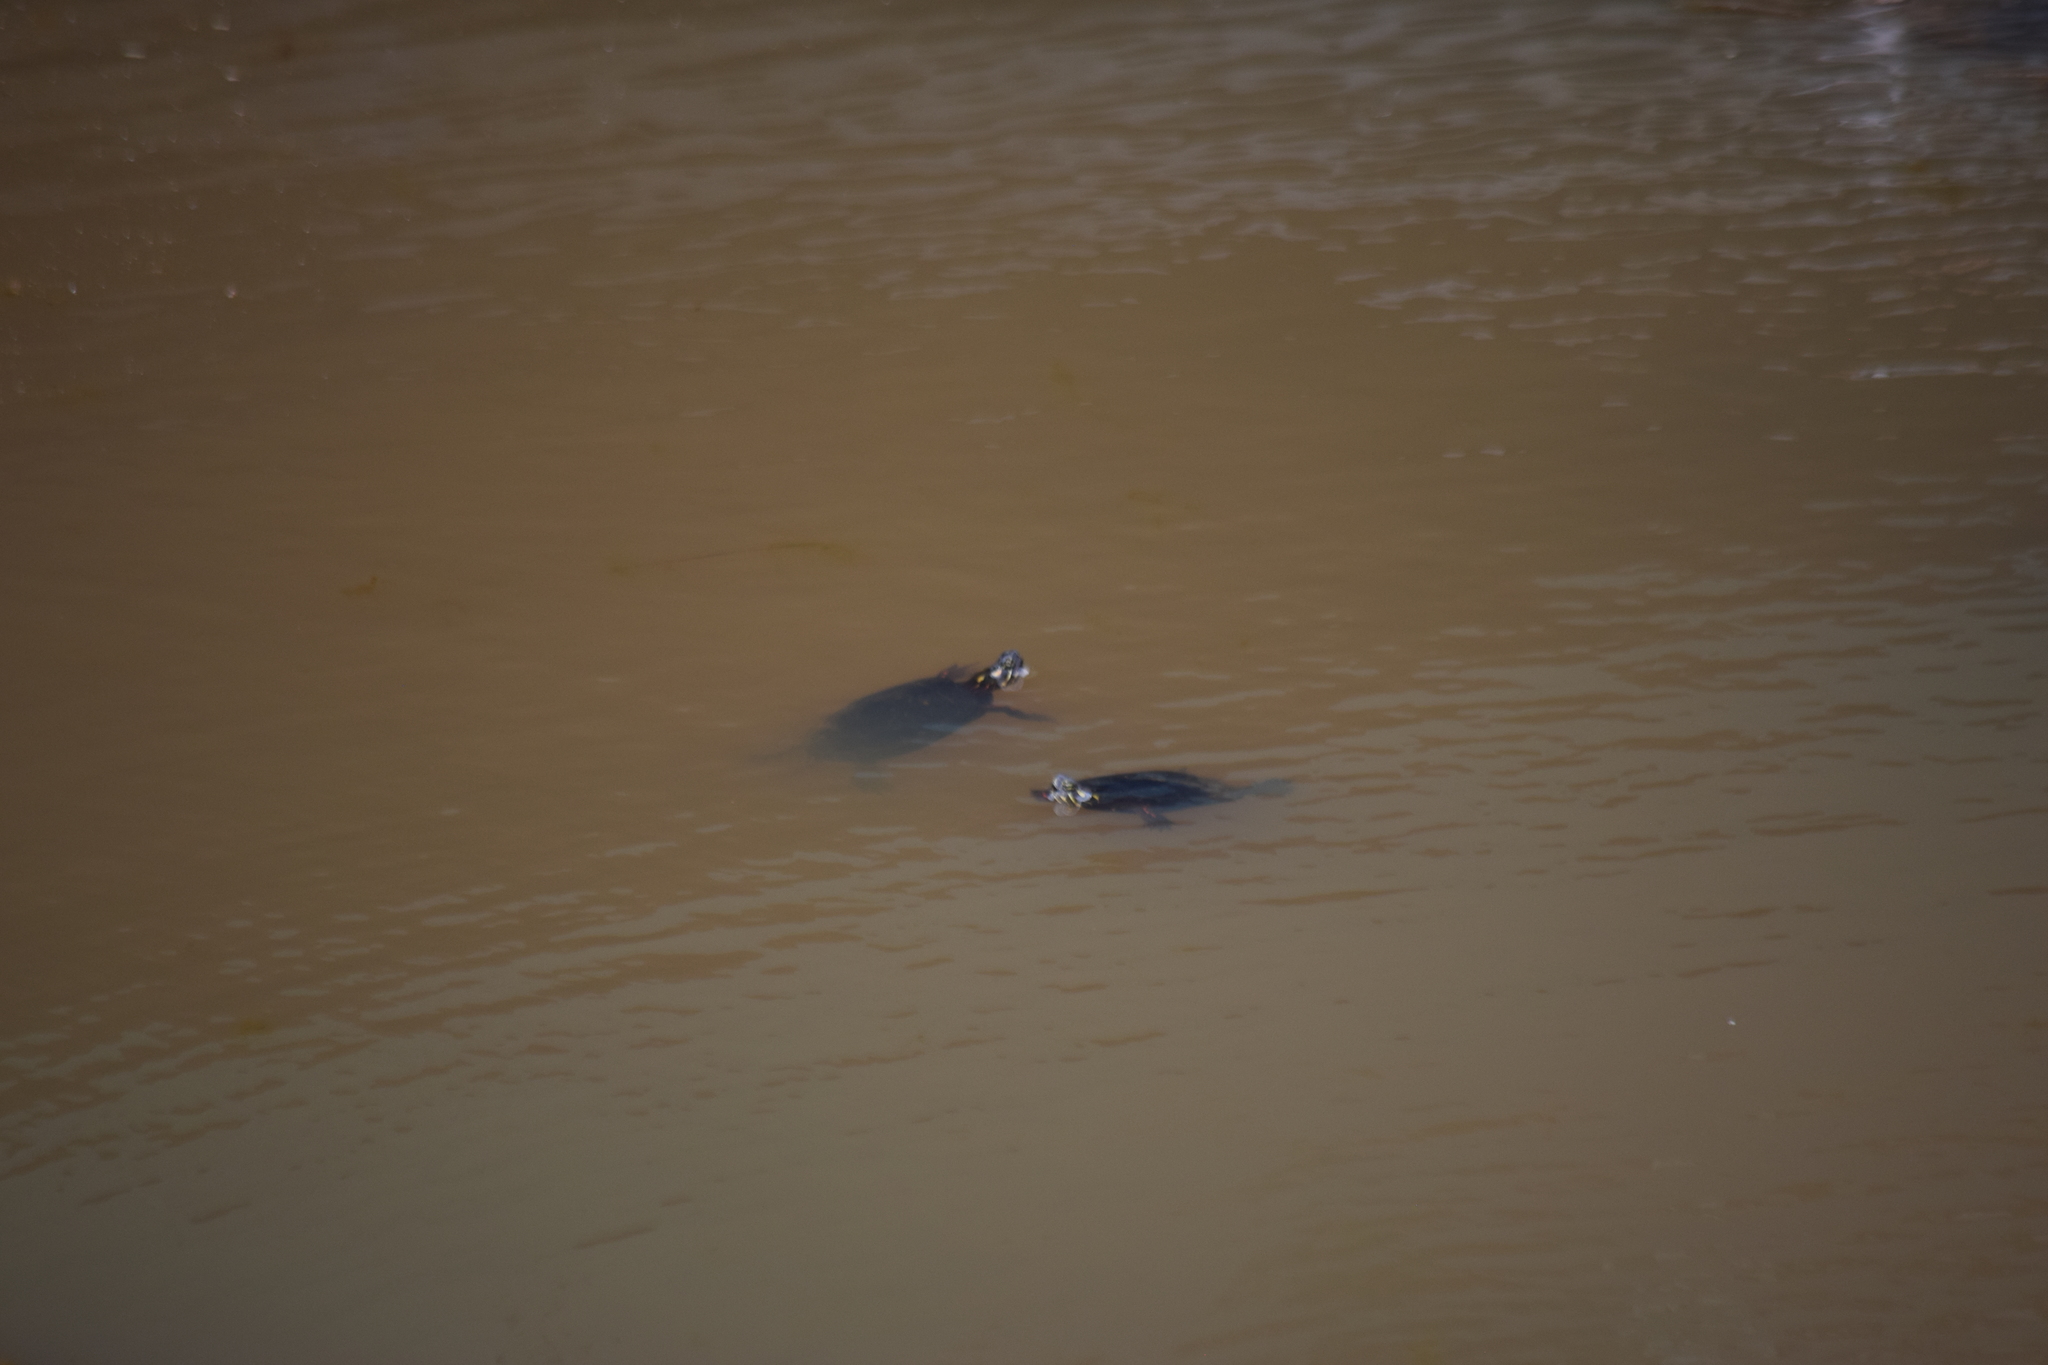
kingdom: Animalia
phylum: Chordata
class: Testudines
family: Emydidae
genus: Chrysemys
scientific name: Chrysemys picta
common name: Painted turtle
